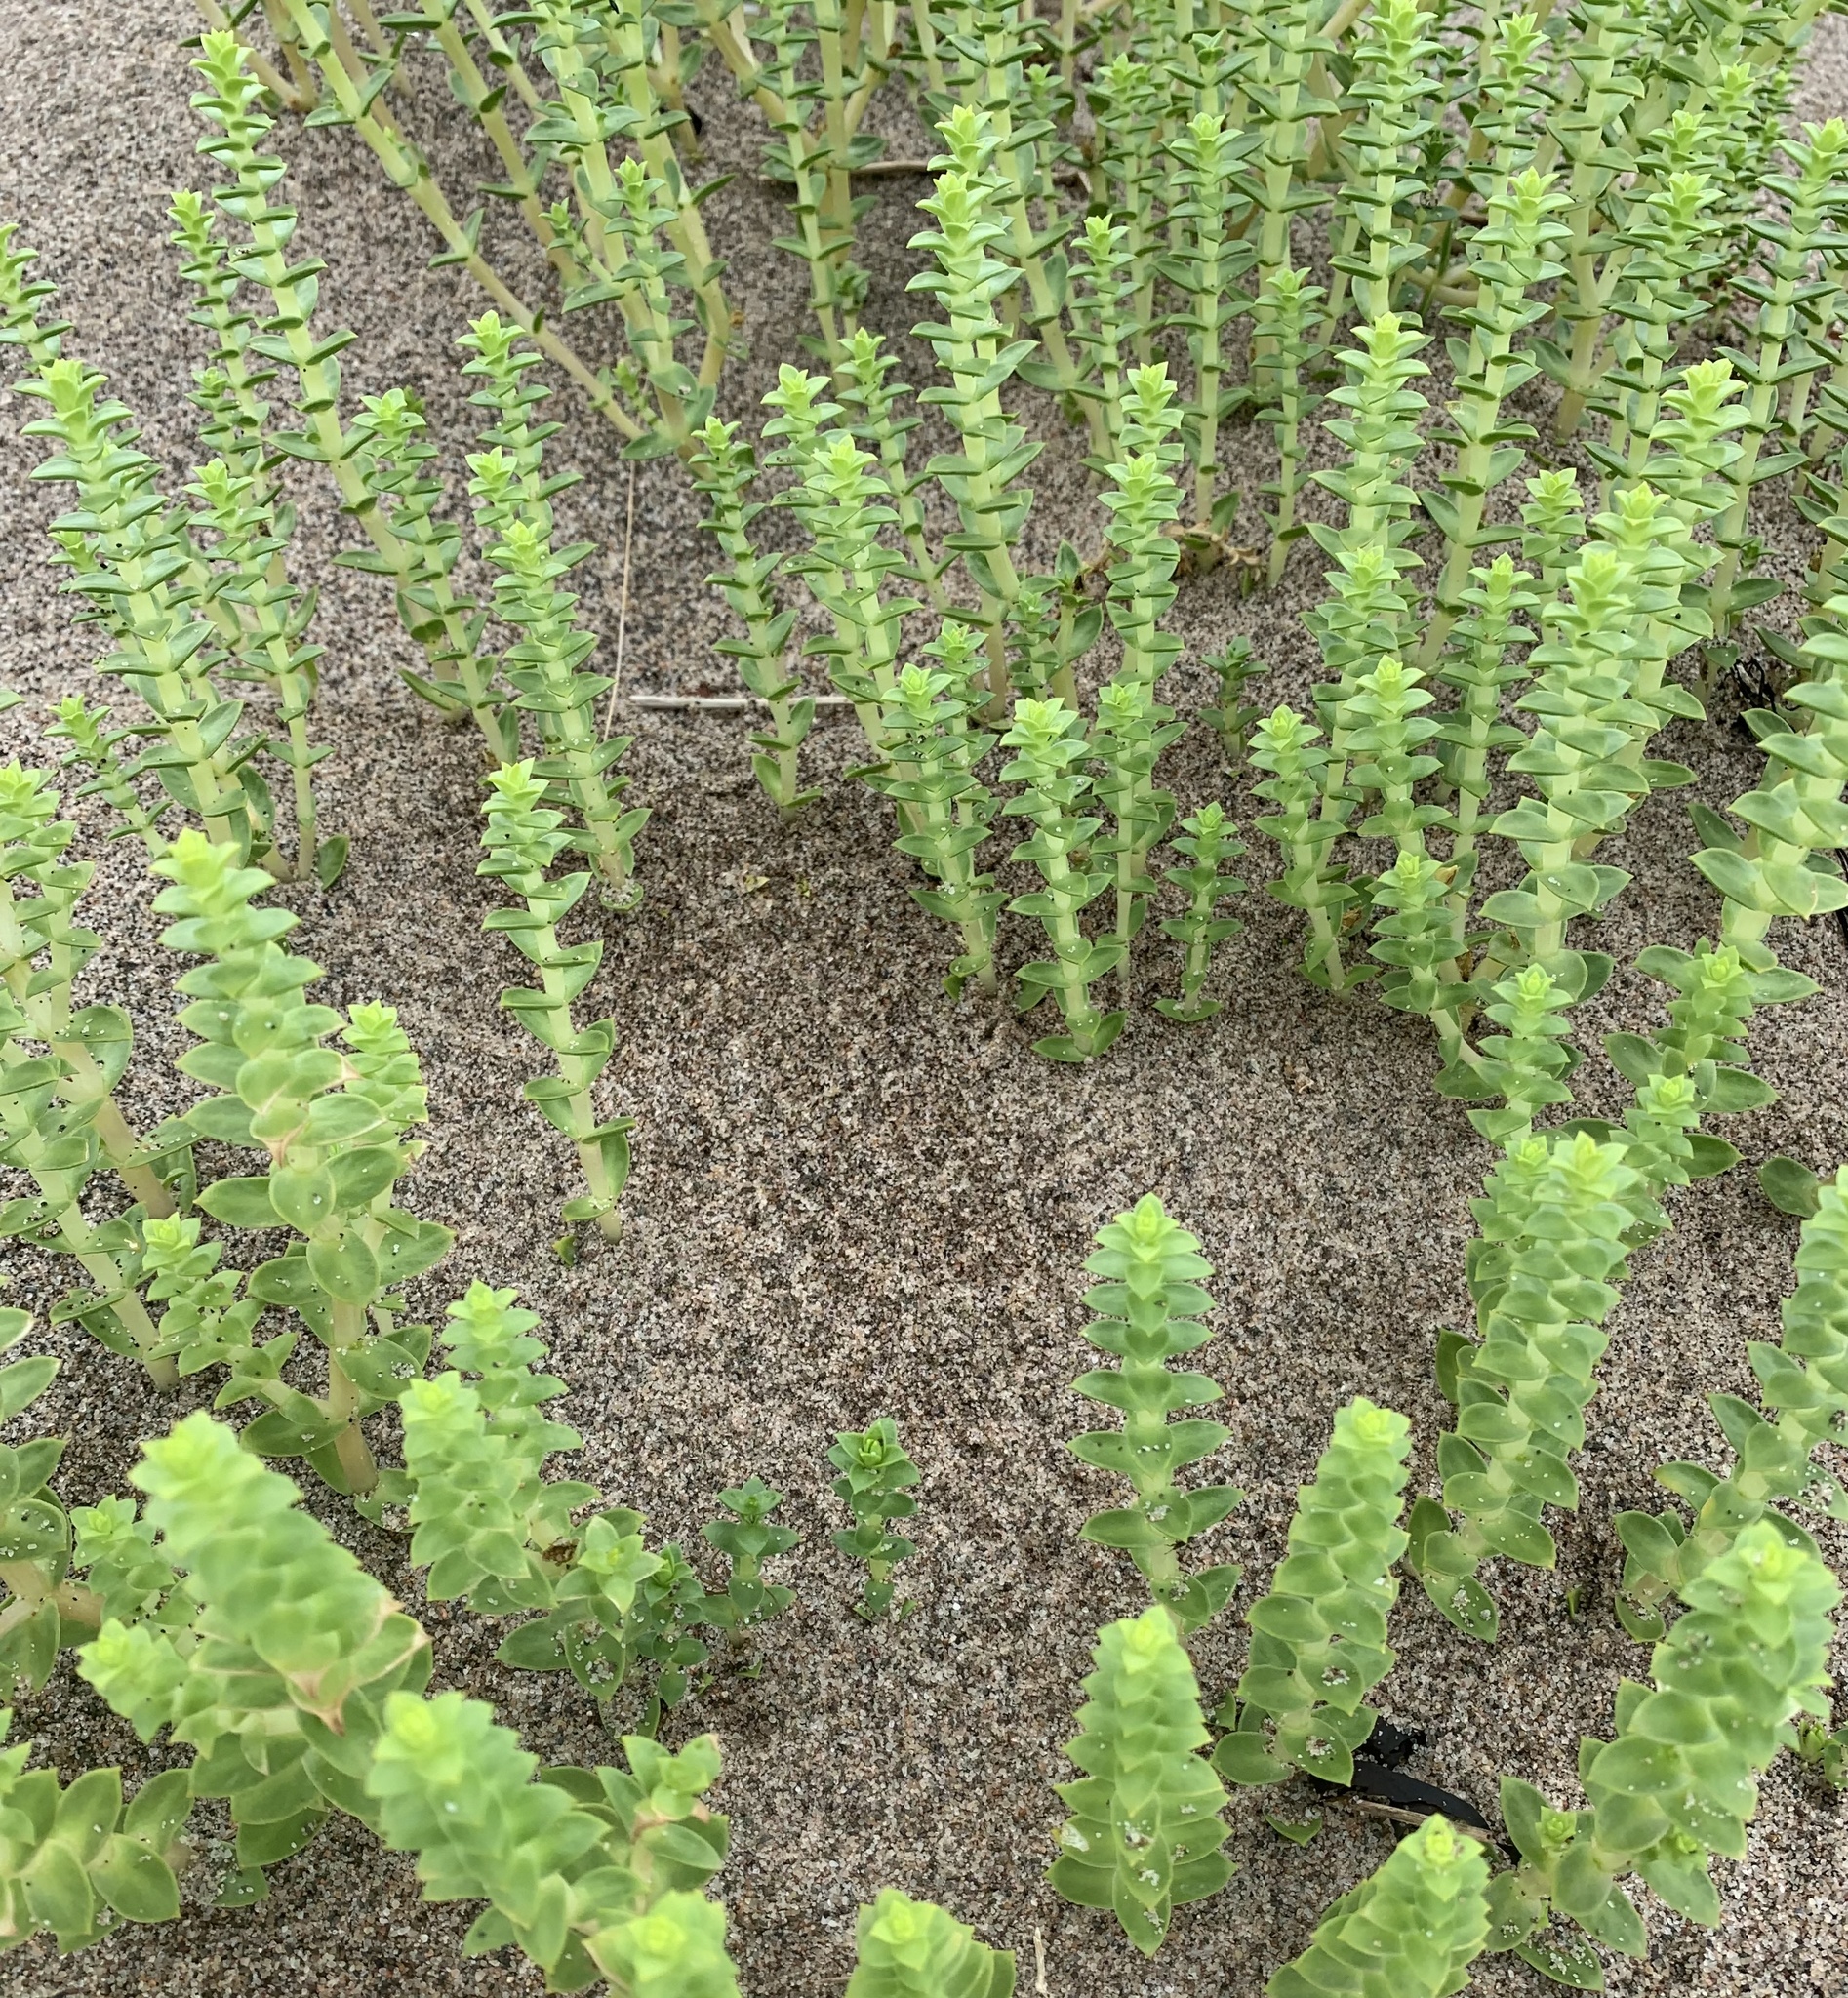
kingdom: Plantae
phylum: Tracheophyta
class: Magnoliopsida
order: Caryophyllales
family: Caryophyllaceae
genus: Honckenya
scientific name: Honckenya peploides
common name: Sea sandwort
